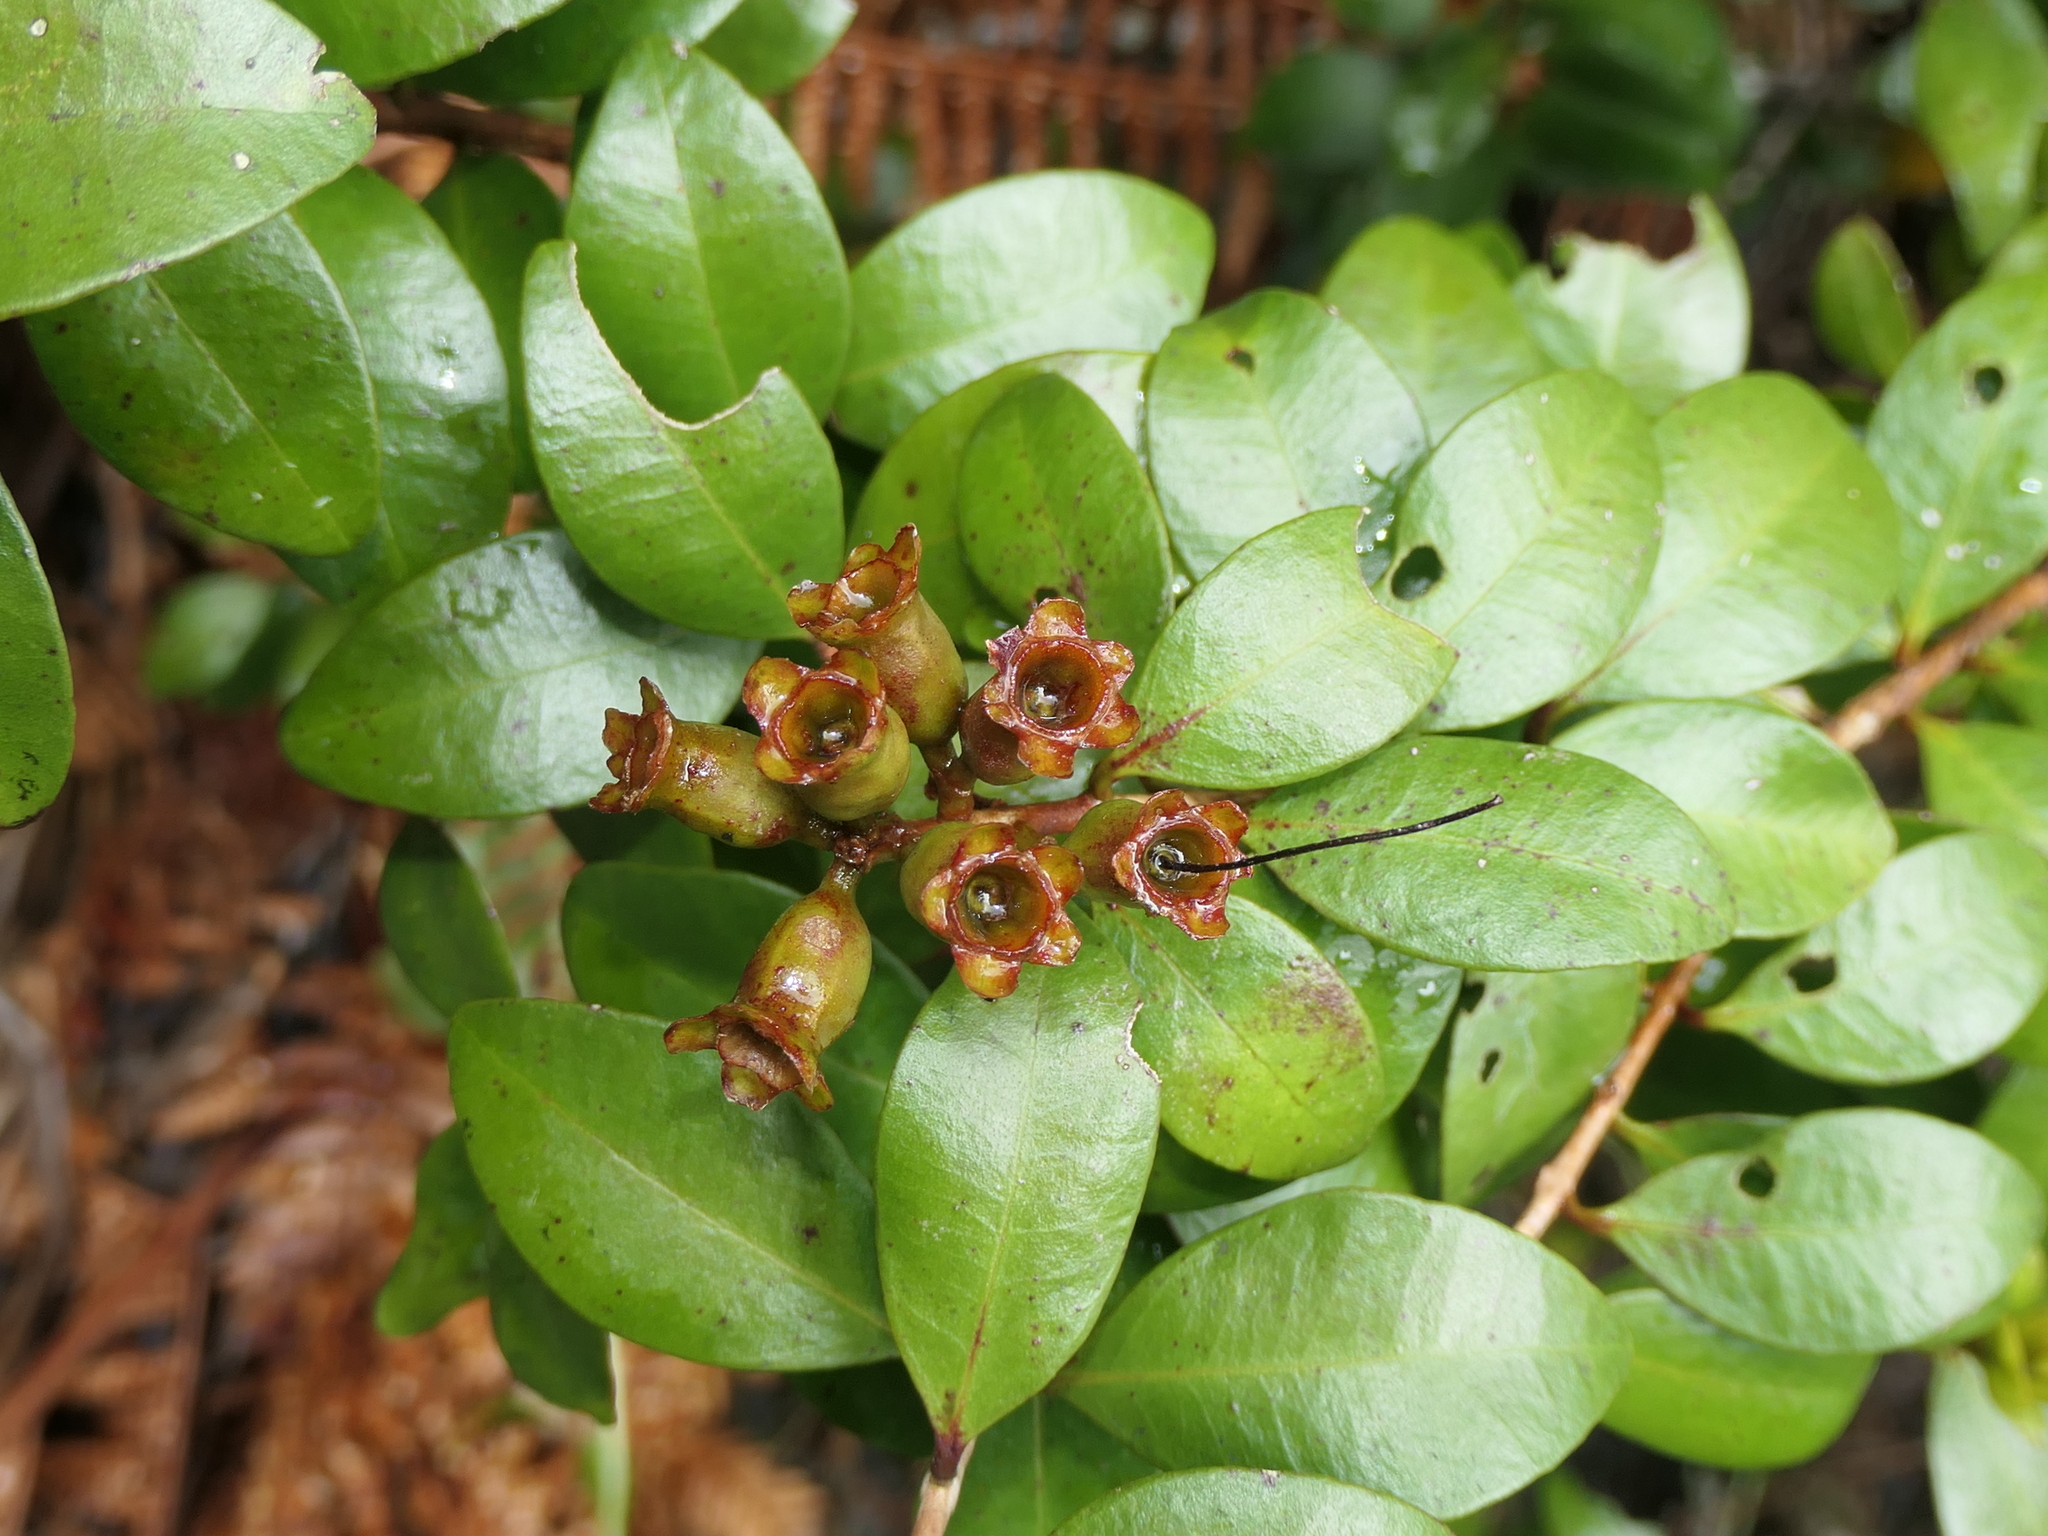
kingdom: Plantae
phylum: Tracheophyta
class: Magnoliopsida
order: Myrtales
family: Myrtaceae
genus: Metrosideros
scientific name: Metrosideros fulgens
